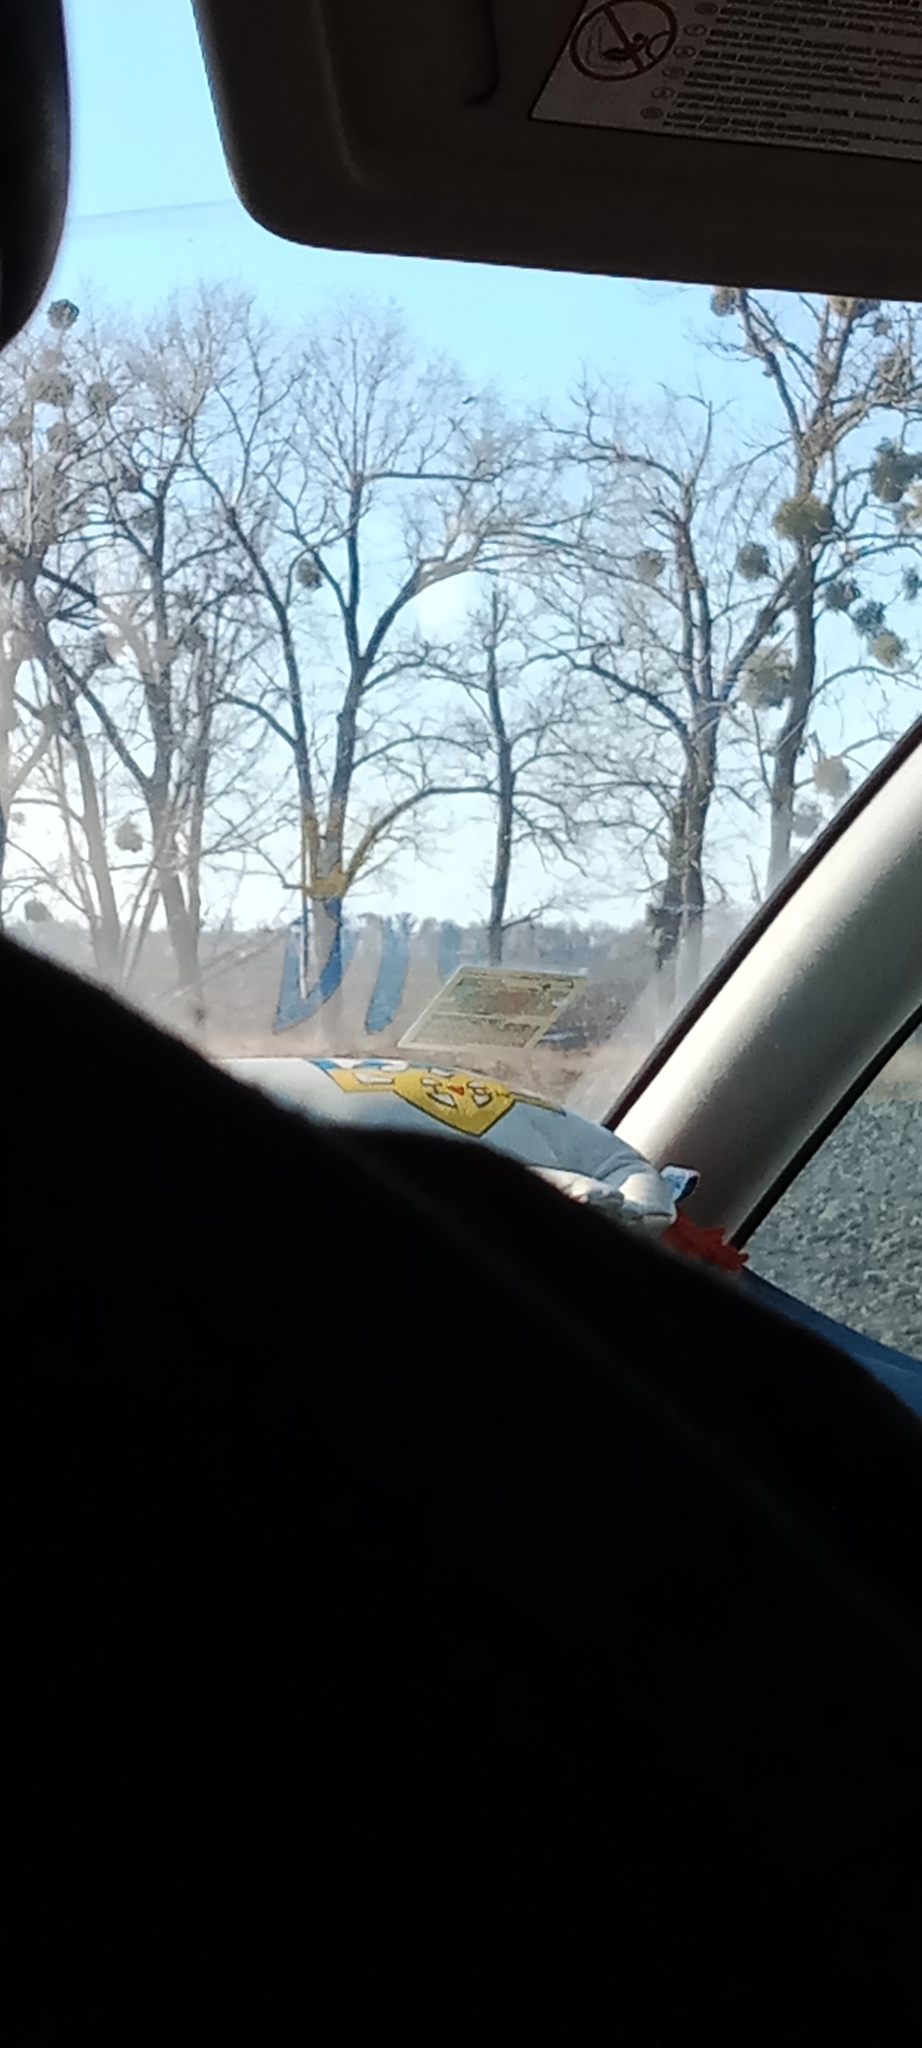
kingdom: Plantae
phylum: Tracheophyta
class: Magnoliopsida
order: Santalales
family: Viscaceae
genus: Viscum
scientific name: Viscum album
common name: Mistletoe
